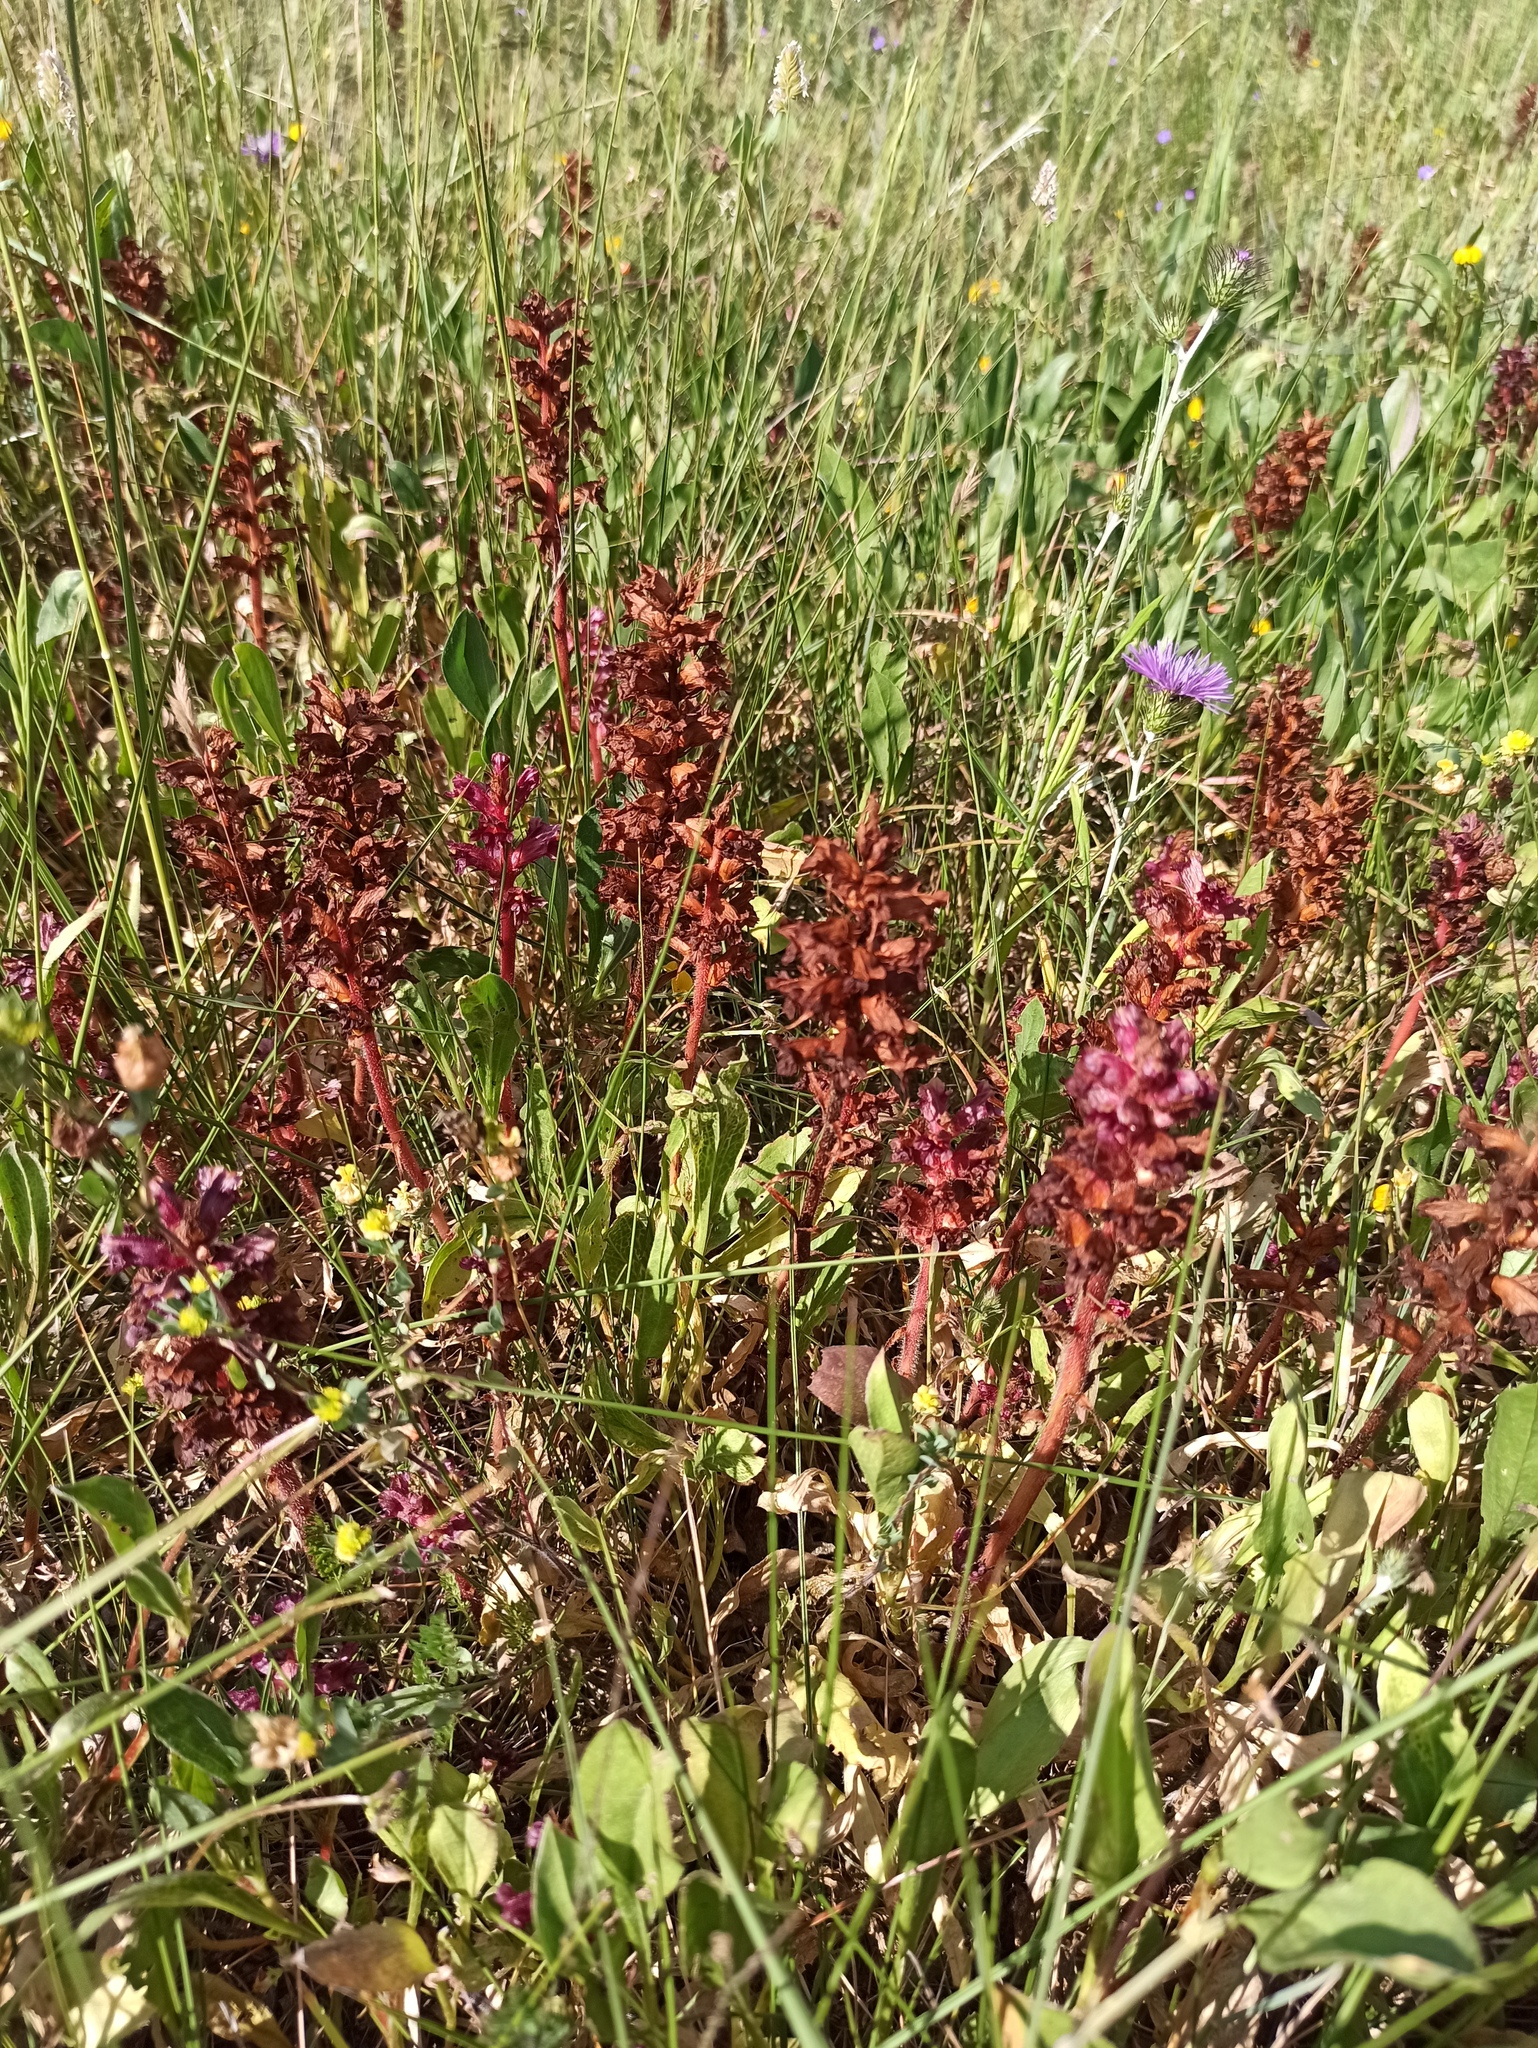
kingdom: Plantae
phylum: Tracheophyta
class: Magnoliopsida
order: Lamiales
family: Orobanchaceae
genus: Orobanche
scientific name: Orobanche foetida
